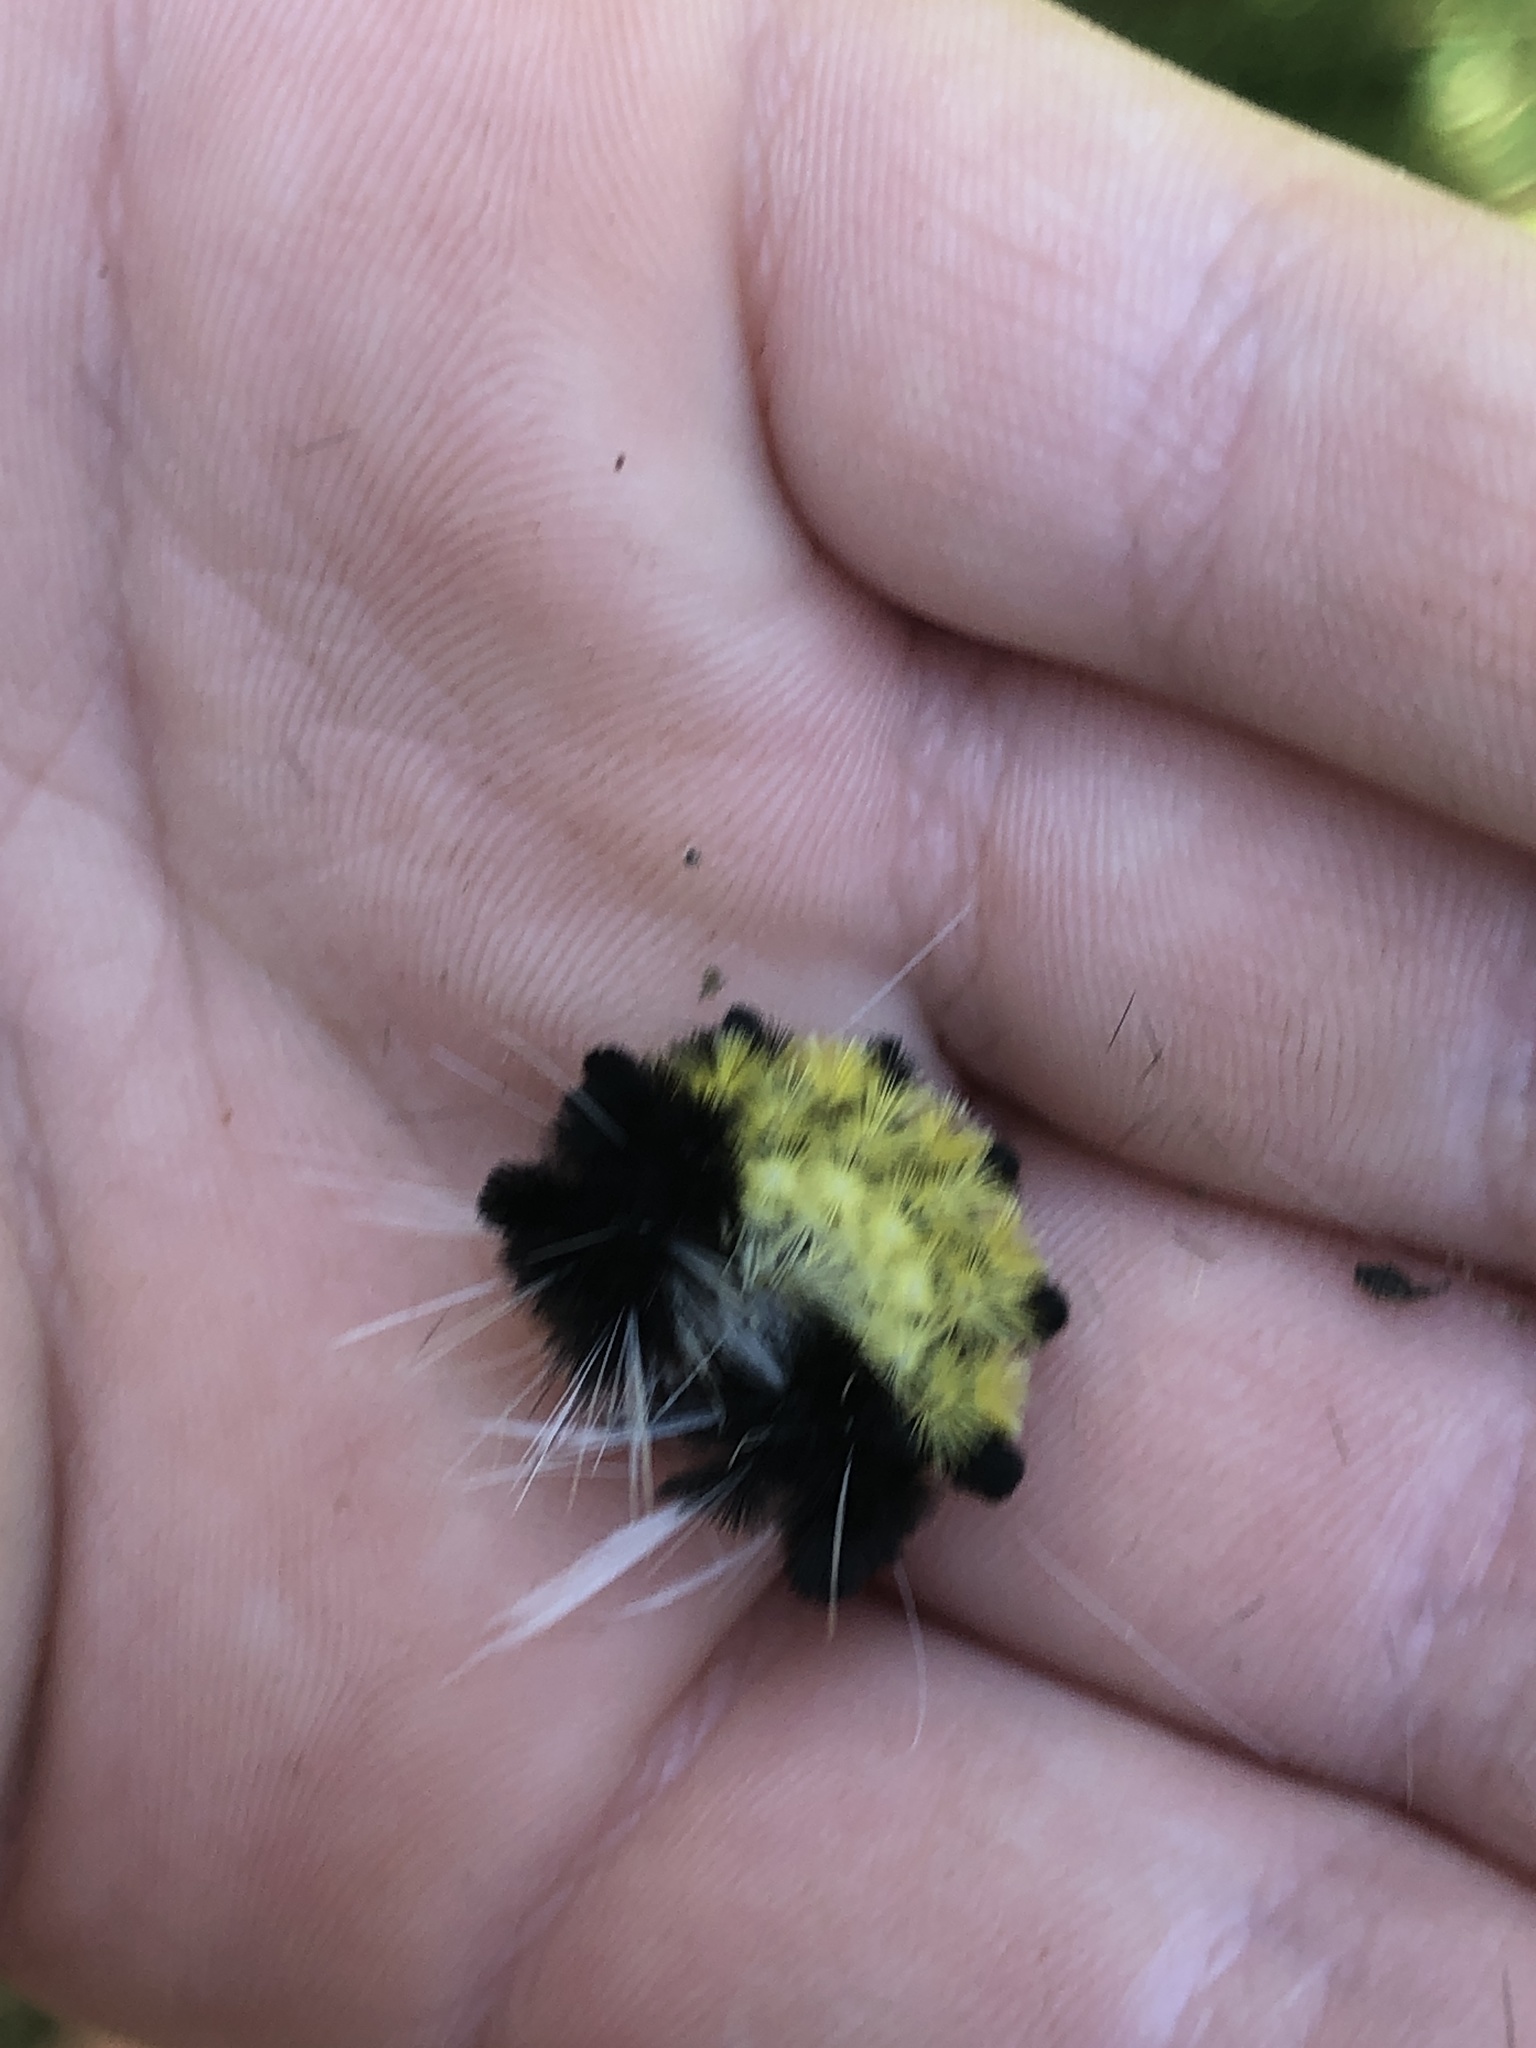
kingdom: Animalia
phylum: Arthropoda
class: Insecta
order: Lepidoptera
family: Erebidae
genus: Lophocampa
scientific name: Lophocampa maculata
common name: Spotted tussock moth
